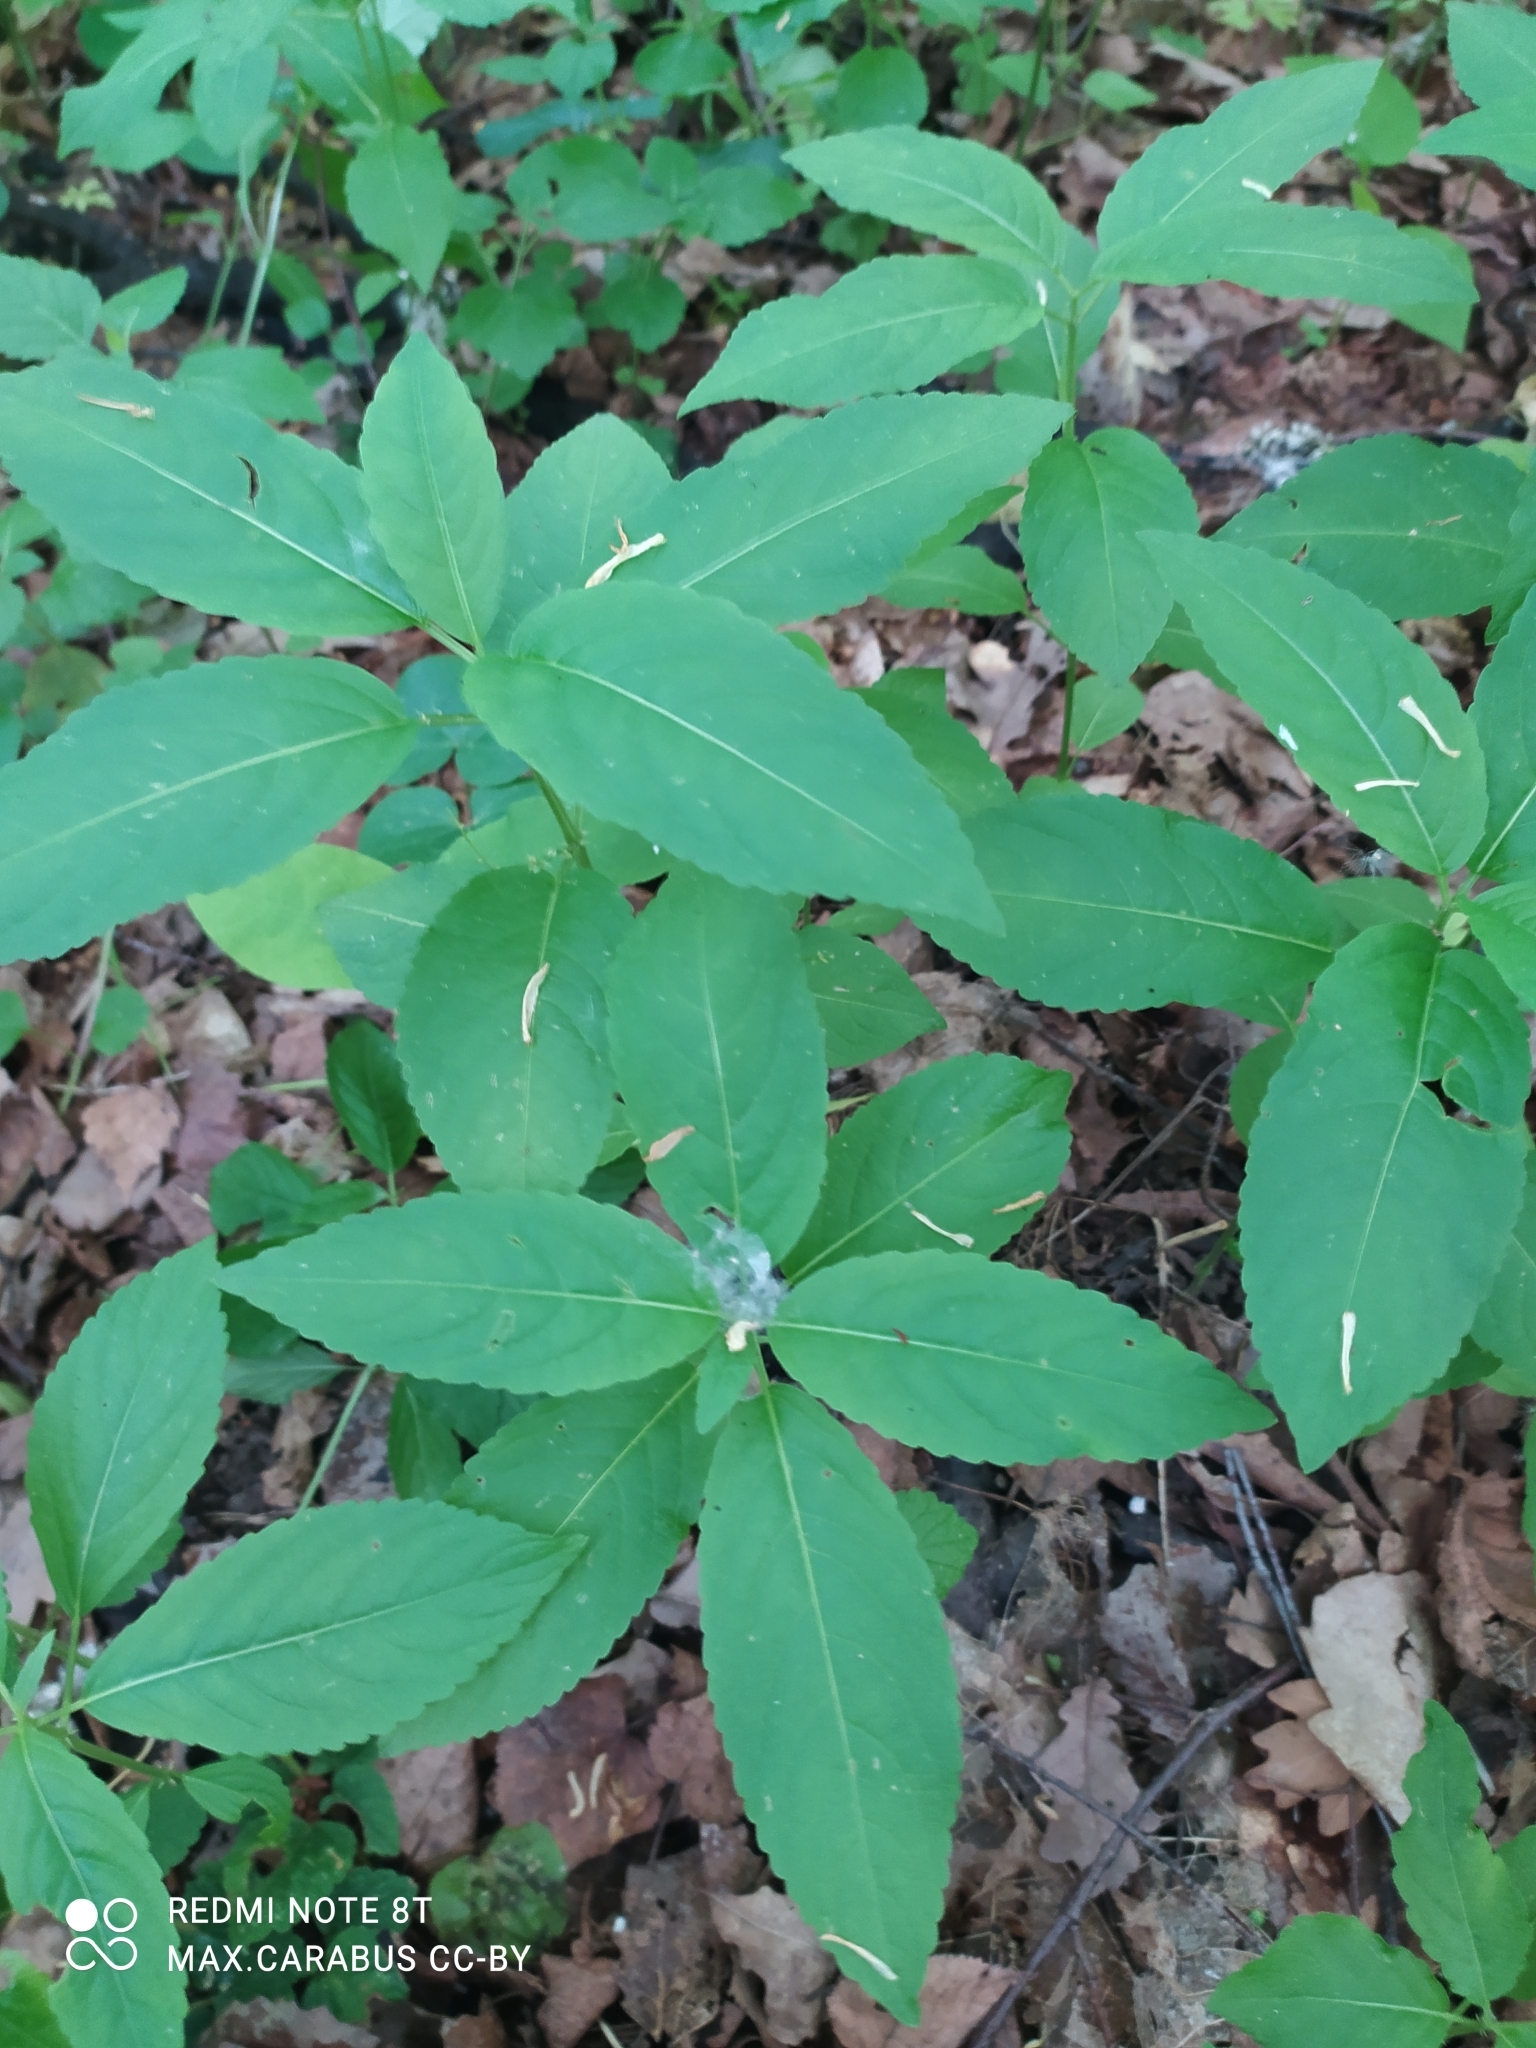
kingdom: Plantae
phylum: Tracheophyta
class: Magnoliopsida
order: Malpighiales
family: Euphorbiaceae
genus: Mercurialis
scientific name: Mercurialis perennis
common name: Dog mercury
